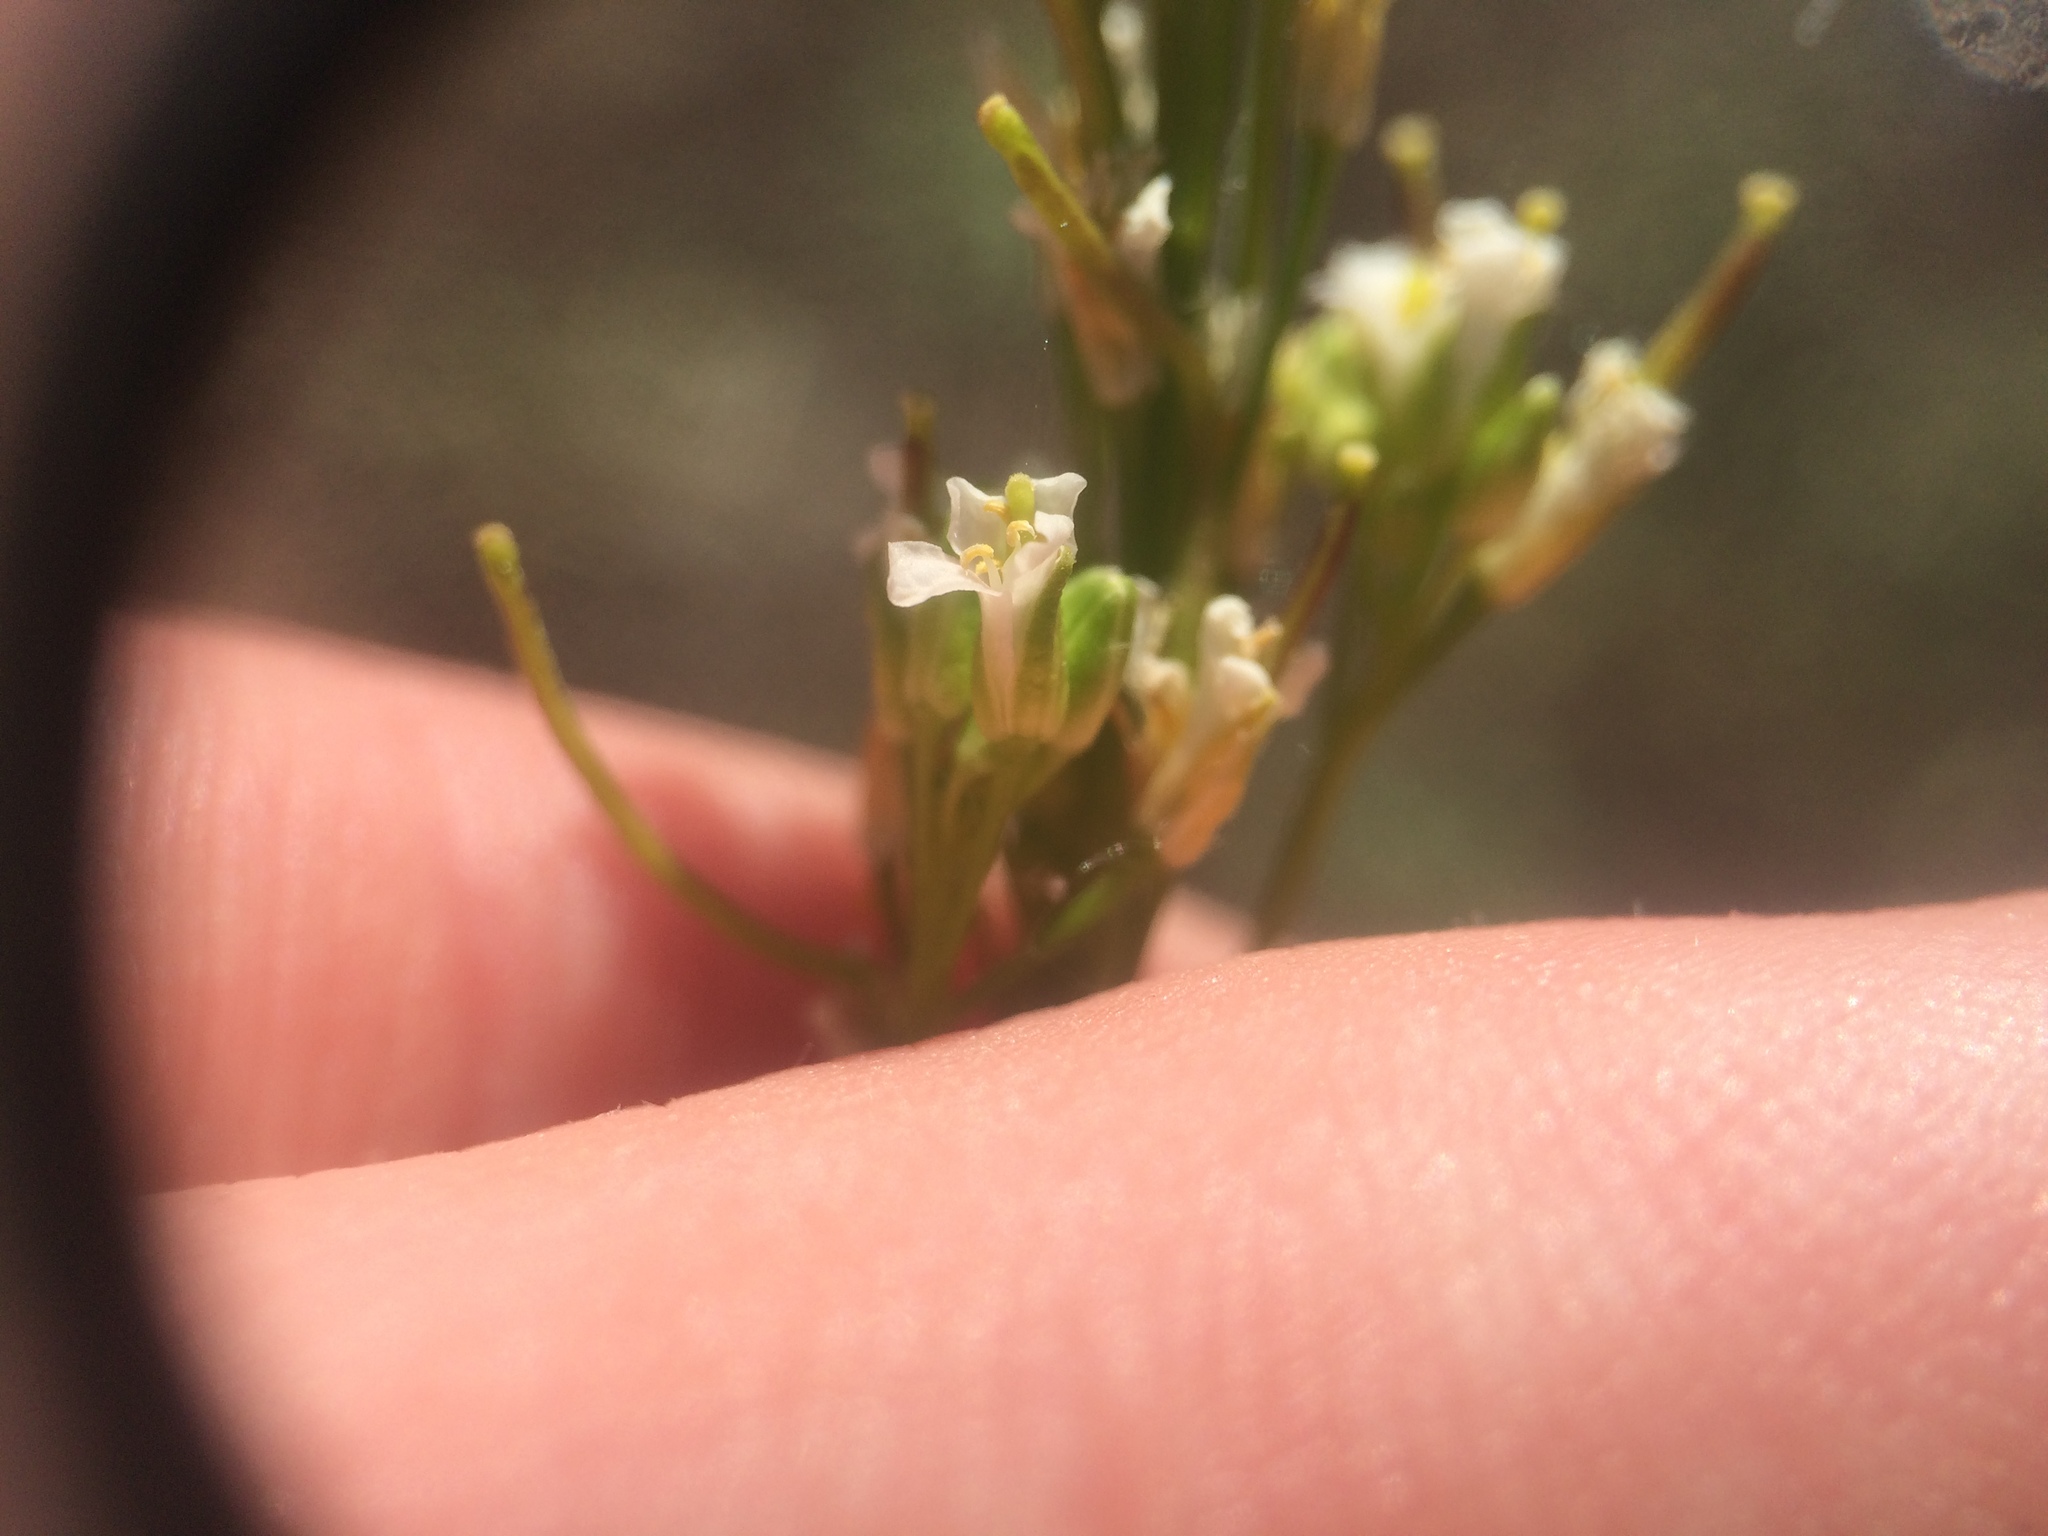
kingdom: Plantae
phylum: Tracheophyta
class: Magnoliopsida
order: Brassicales
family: Brassicaceae
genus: Arabis
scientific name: Arabis pycnocarpa
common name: Blushing rockcress
